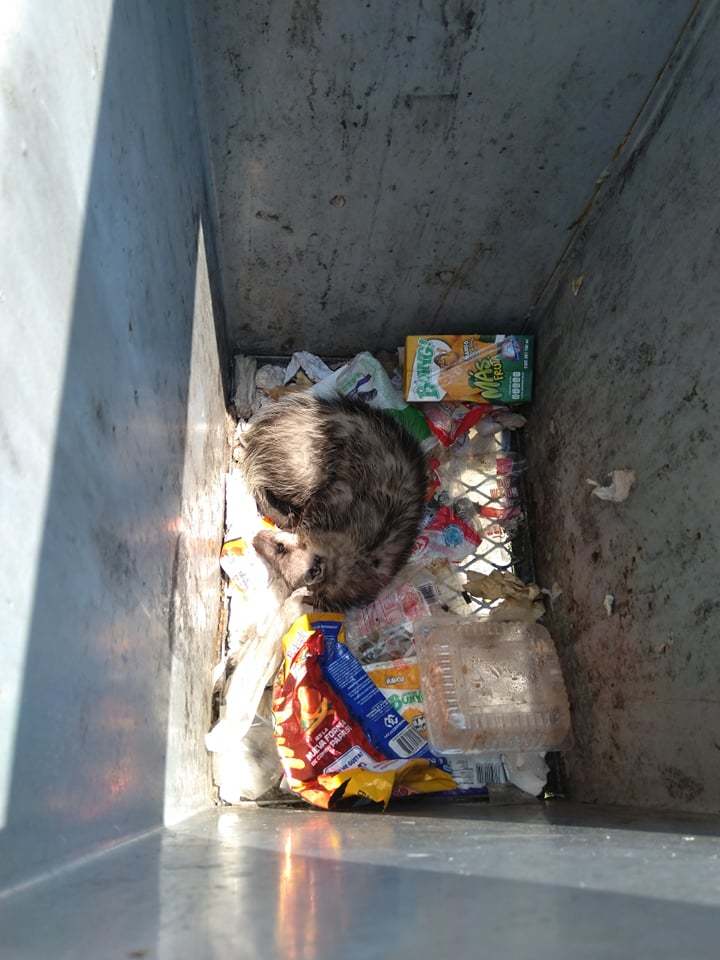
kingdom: Animalia
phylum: Chordata
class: Mammalia
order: Didelphimorphia
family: Didelphidae
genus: Didelphis
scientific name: Didelphis virginiana
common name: Virginia opossum
